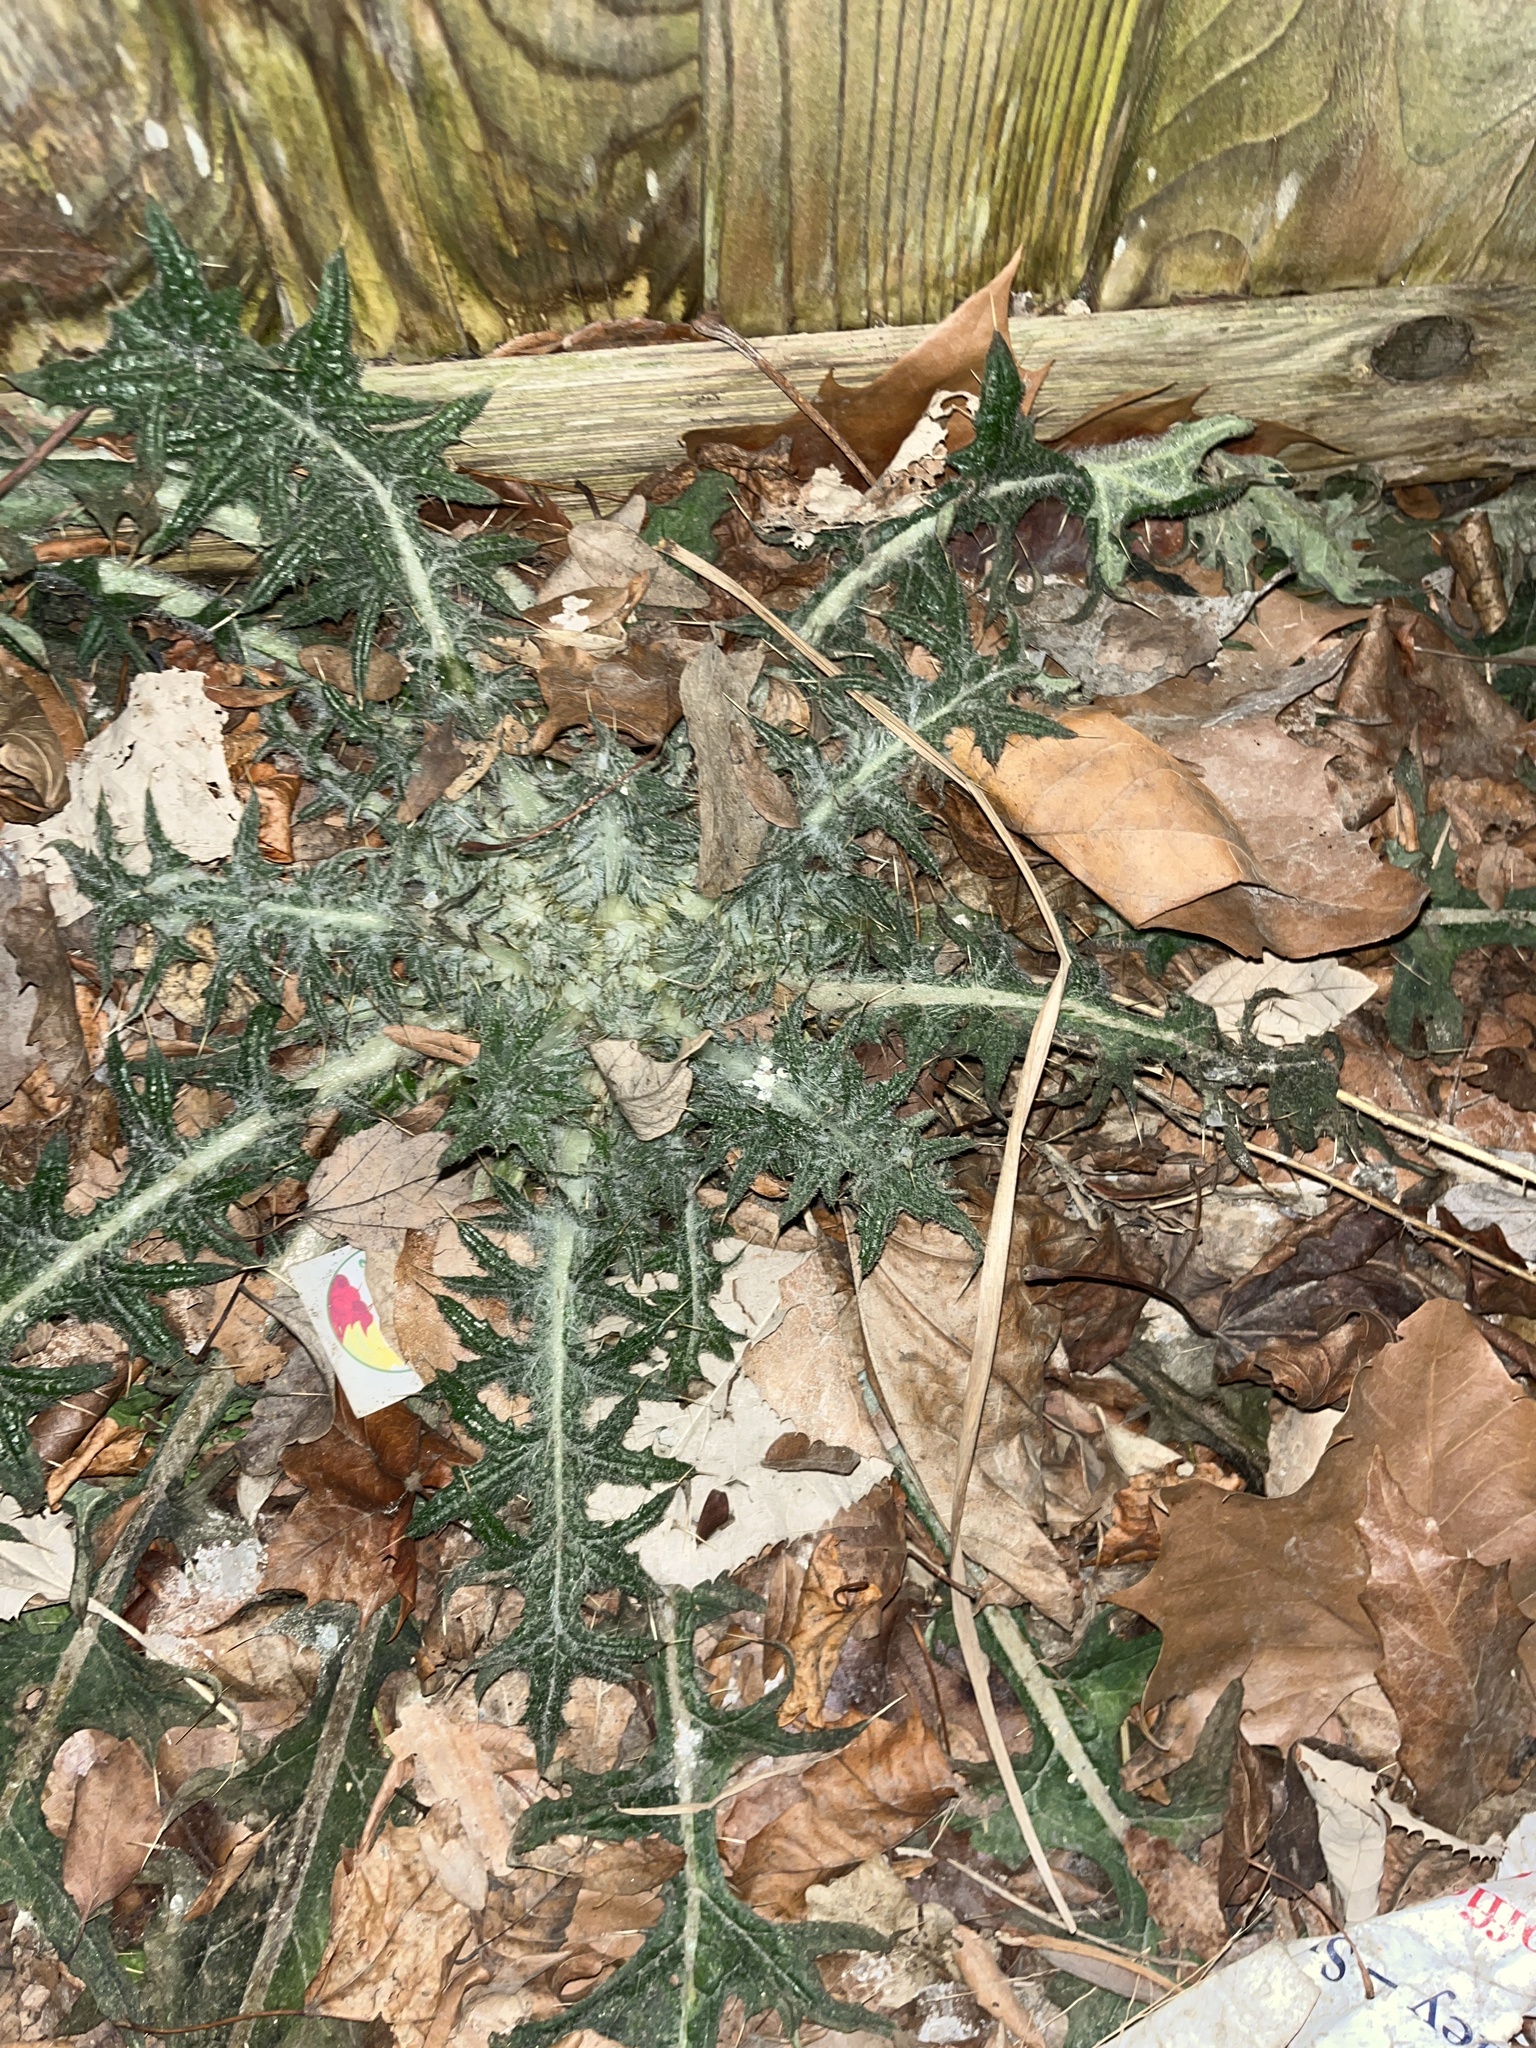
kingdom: Plantae
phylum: Tracheophyta
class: Magnoliopsida
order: Asterales
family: Asteraceae
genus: Cirsium
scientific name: Cirsium vulgare
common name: Bull thistle
